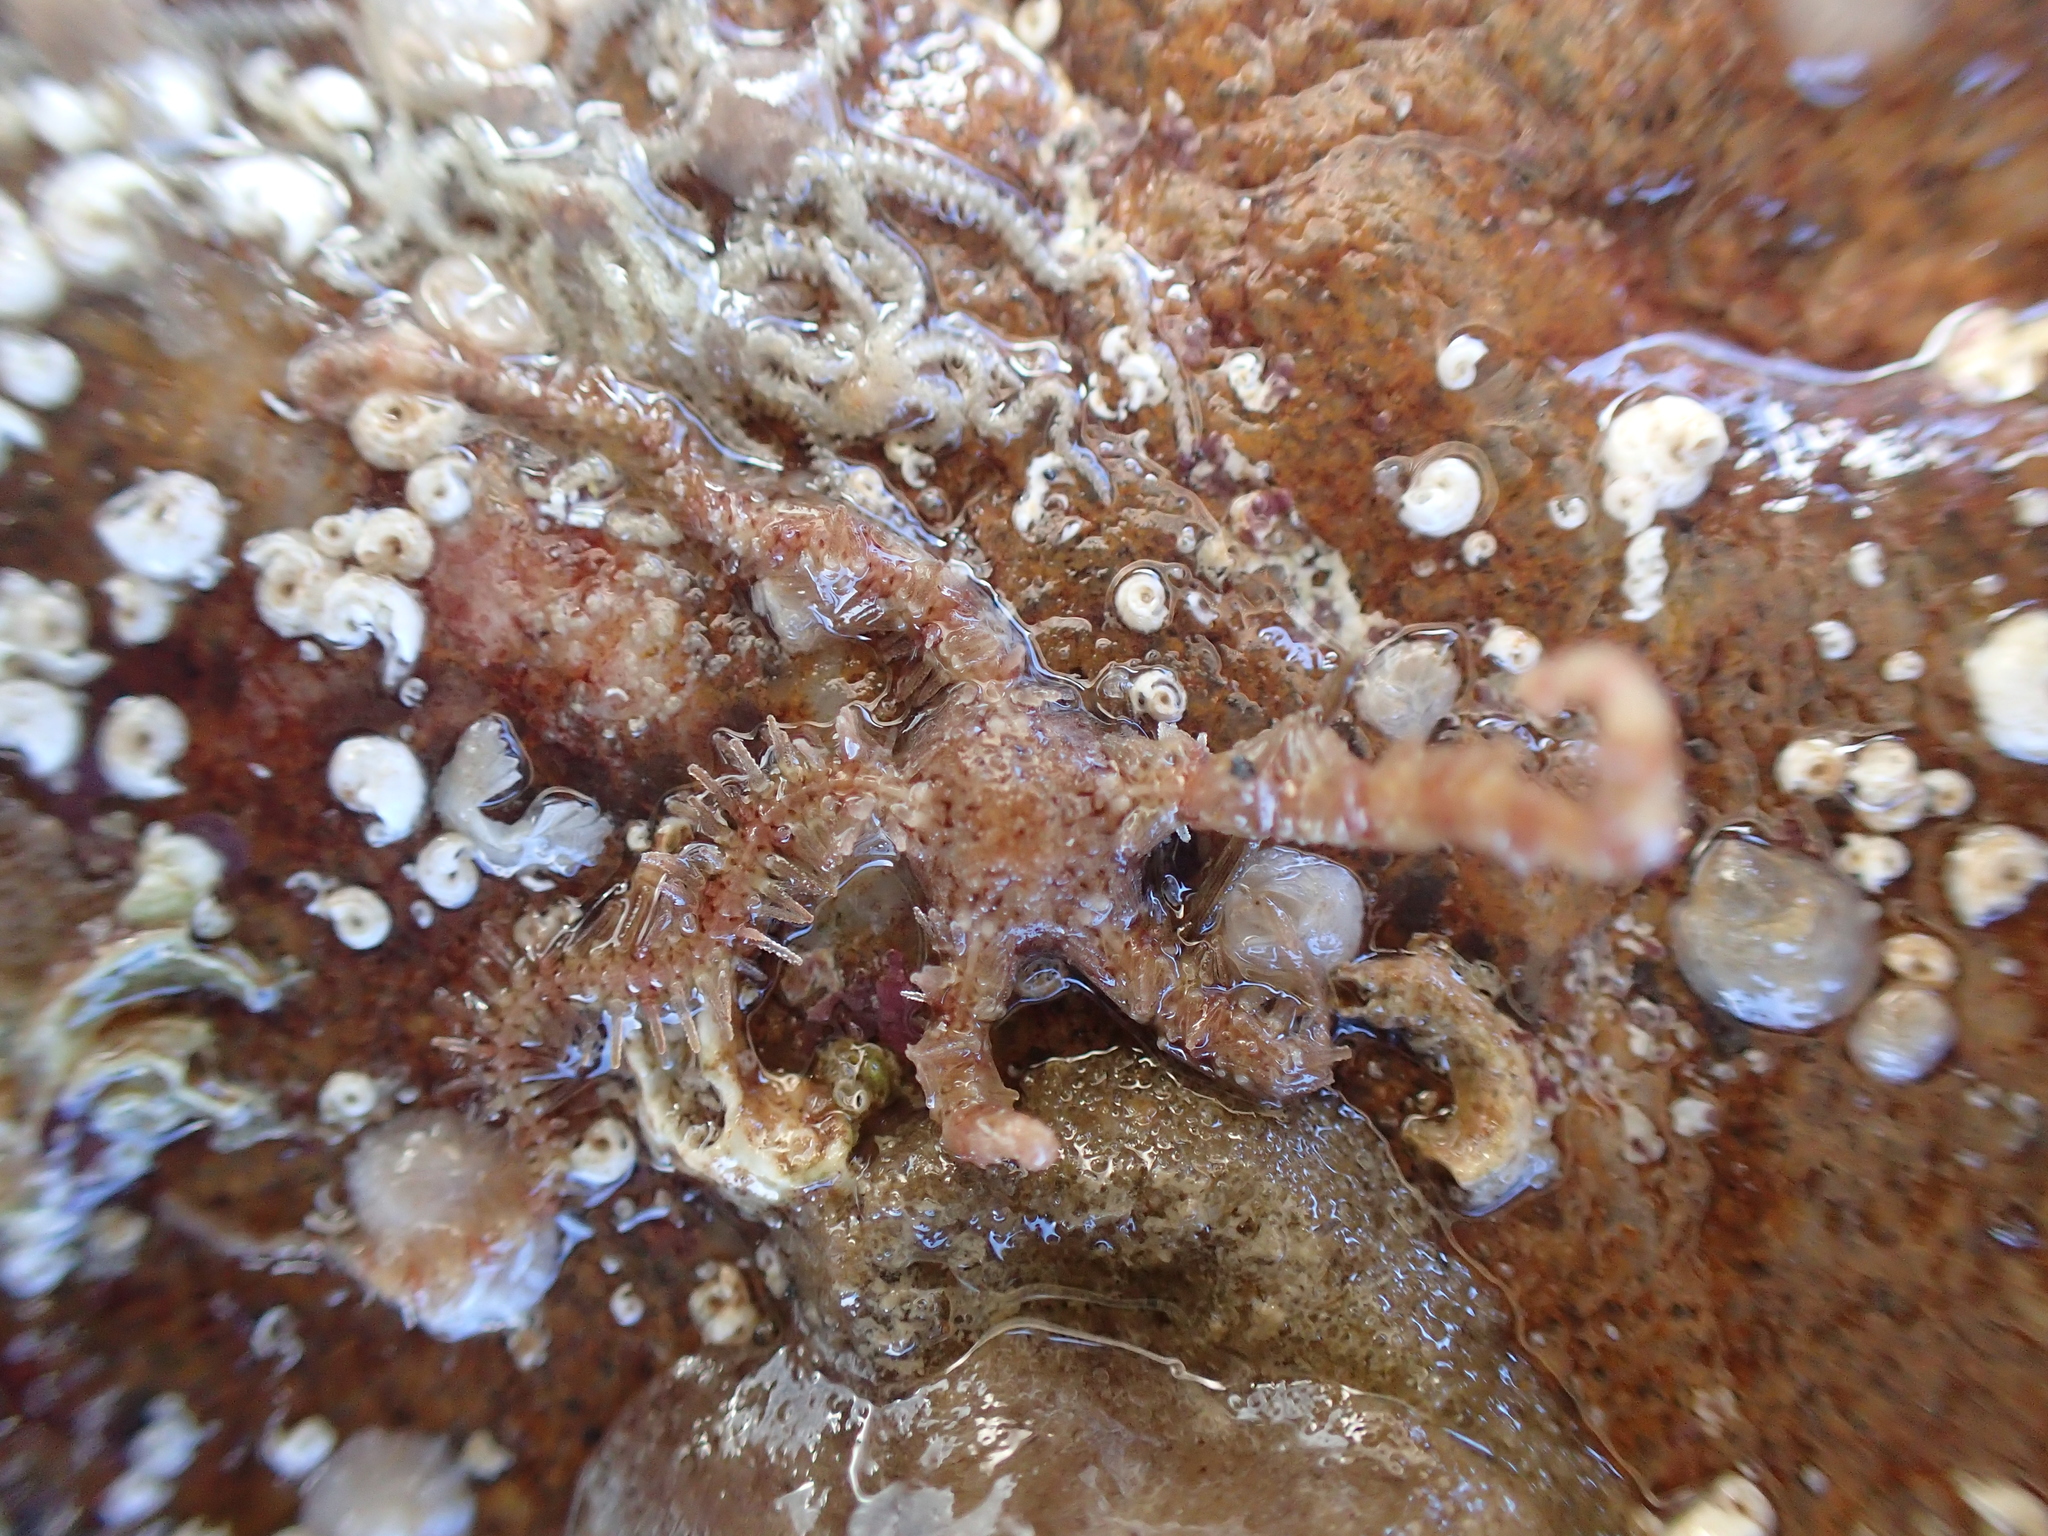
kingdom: Animalia
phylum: Echinodermata
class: Ophiuroidea
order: Amphilepidida
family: Ophiotrichidae
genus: Ophiothrix
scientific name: Ophiothrix fragilis
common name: Common brittlestar
